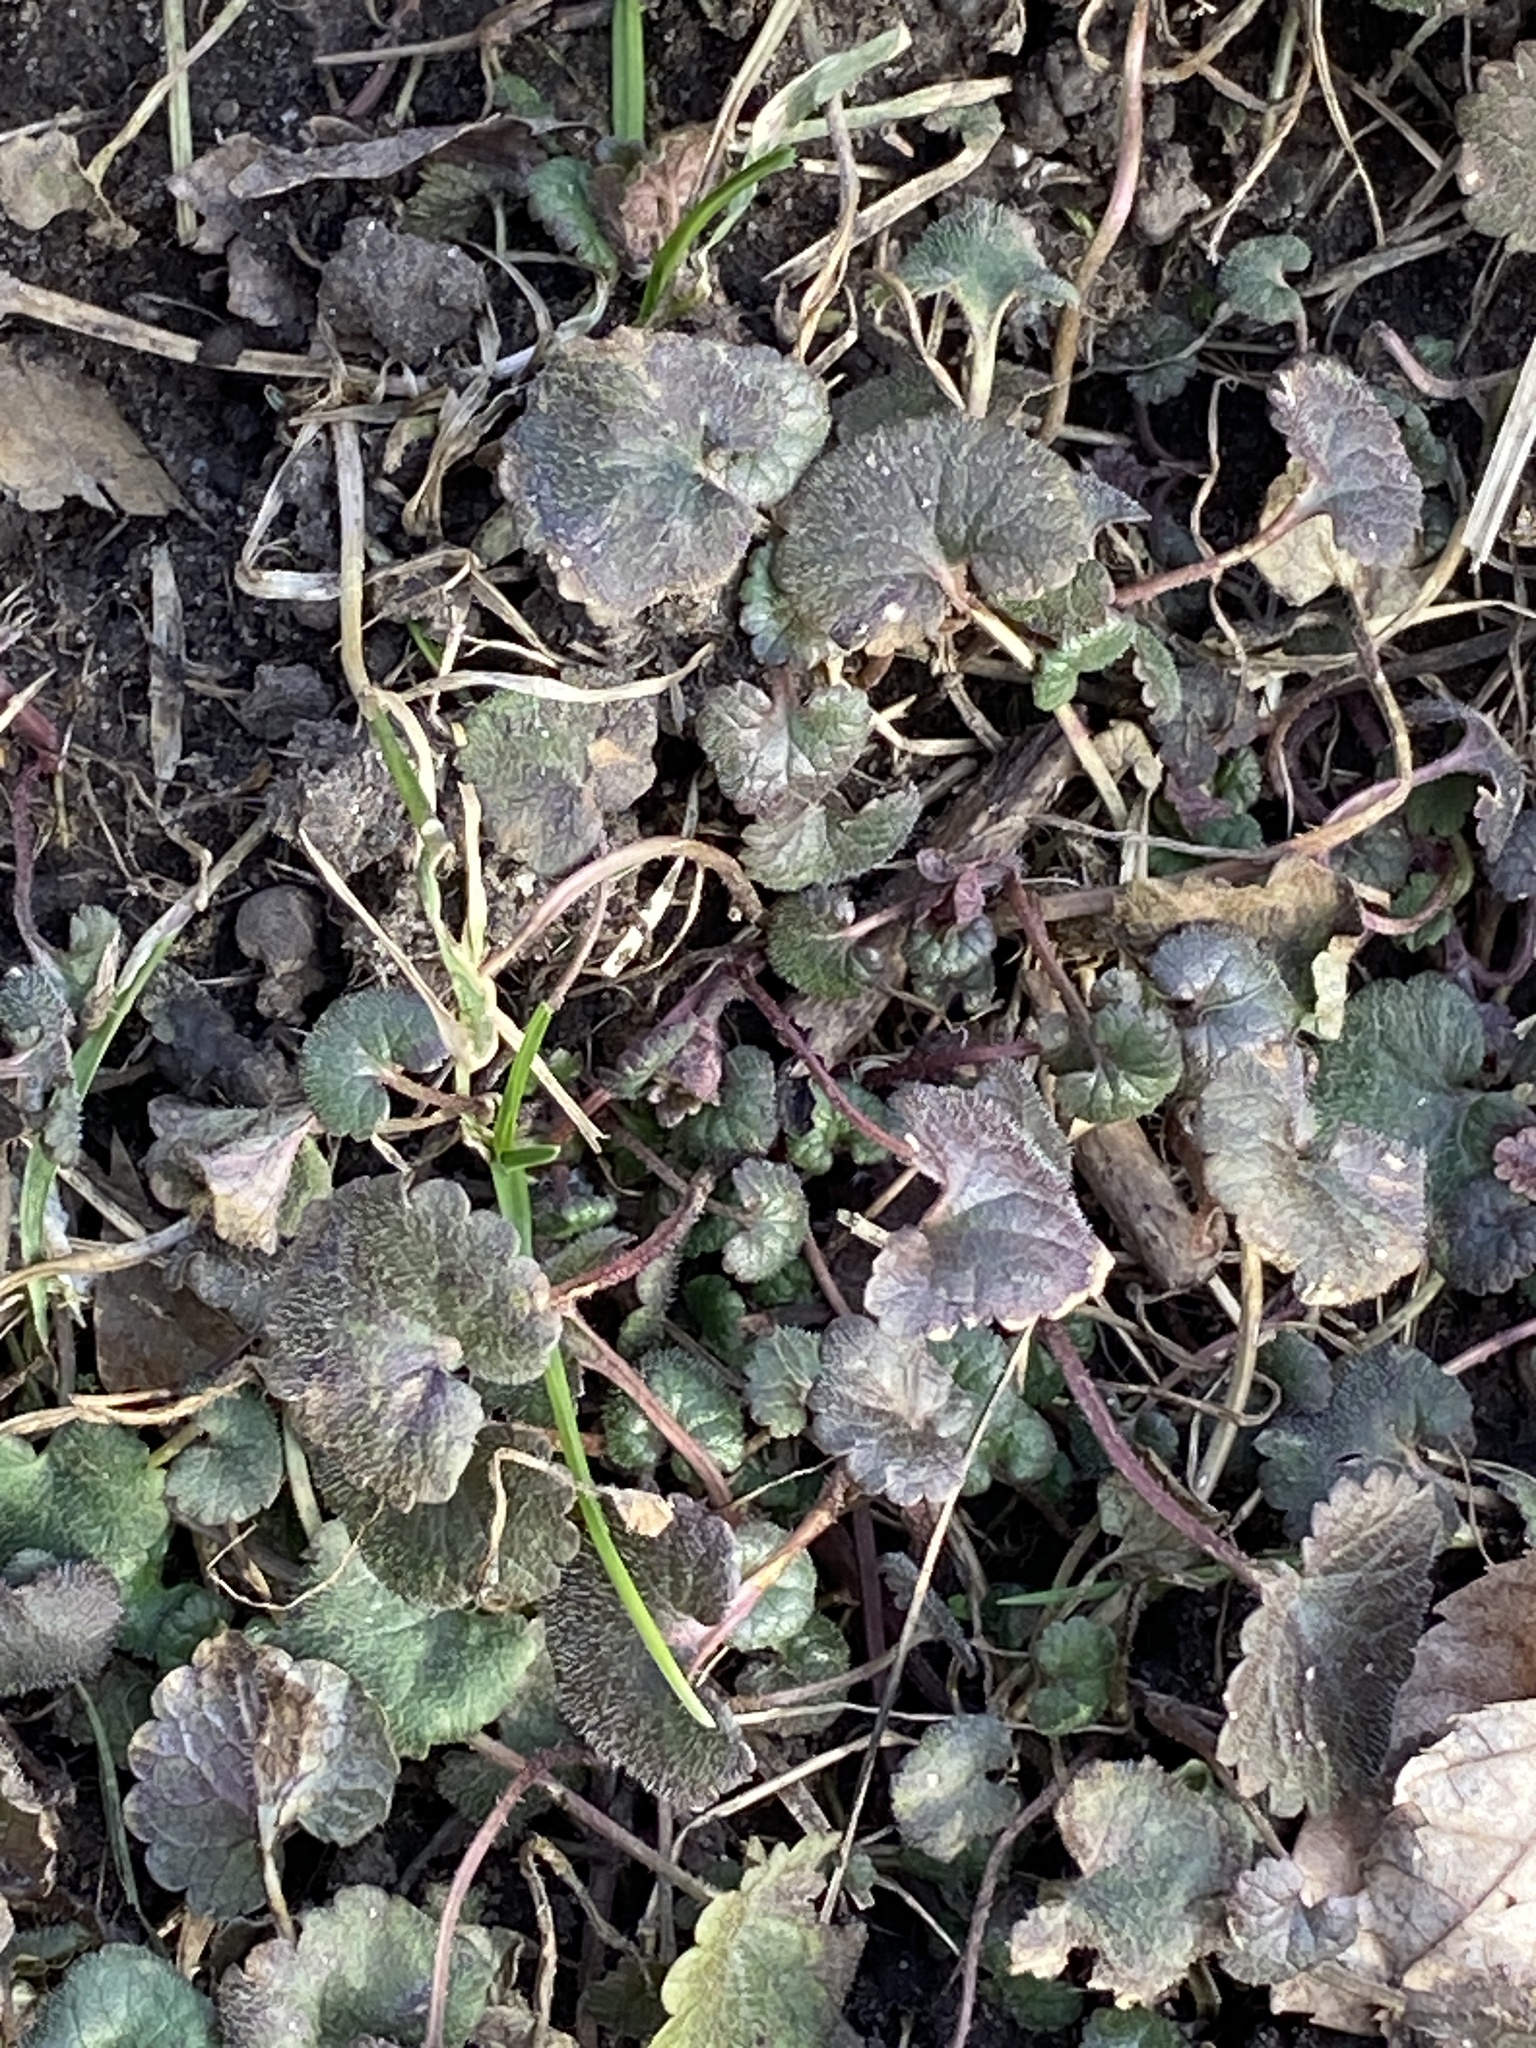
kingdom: Plantae
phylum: Tracheophyta
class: Magnoliopsida
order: Lamiales
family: Lamiaceae
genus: Glechoma
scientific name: Glechoma hederacea
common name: Ground ivy
